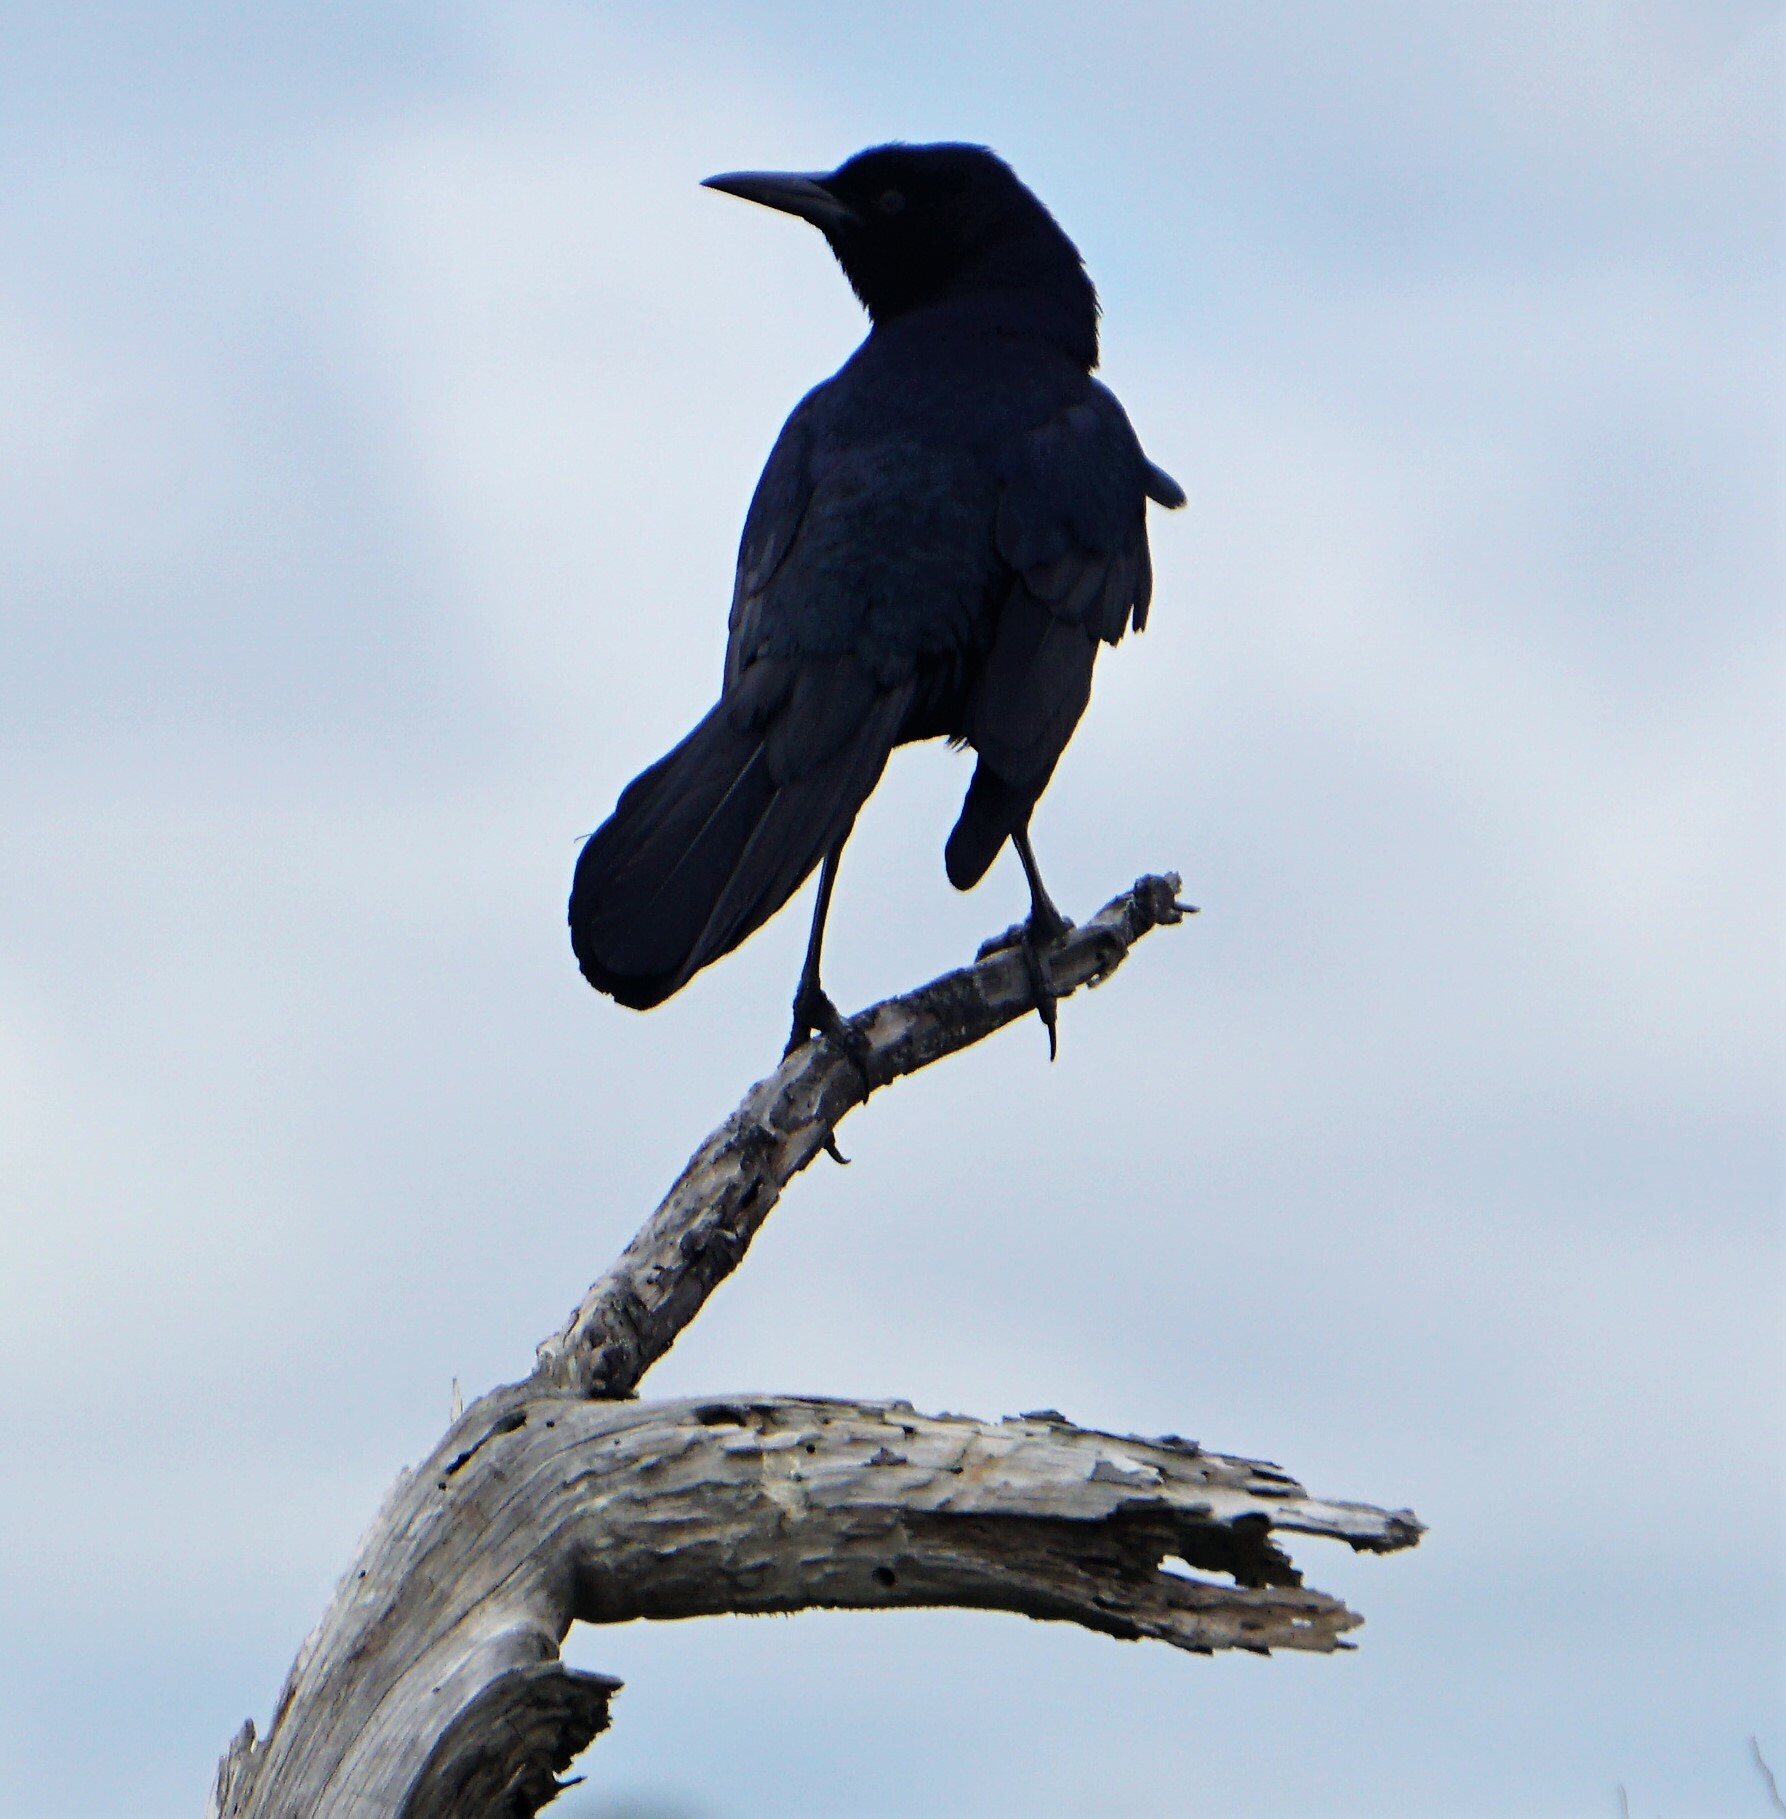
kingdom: Animalia
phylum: Chordata
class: Aves
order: Passeriformes
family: Icteridae
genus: Quiscalus
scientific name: Quiscalus major
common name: Boat-tailed grackle
